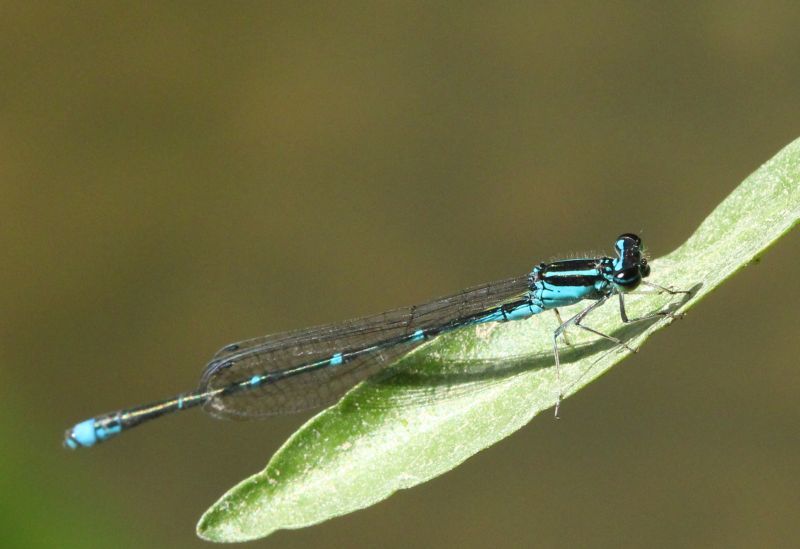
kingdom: Animalia
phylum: Arthropoda
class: Insecta
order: Odonata
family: Coenagrionidae
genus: Enallagma
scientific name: Enallagma exsulans
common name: Stream bluet
